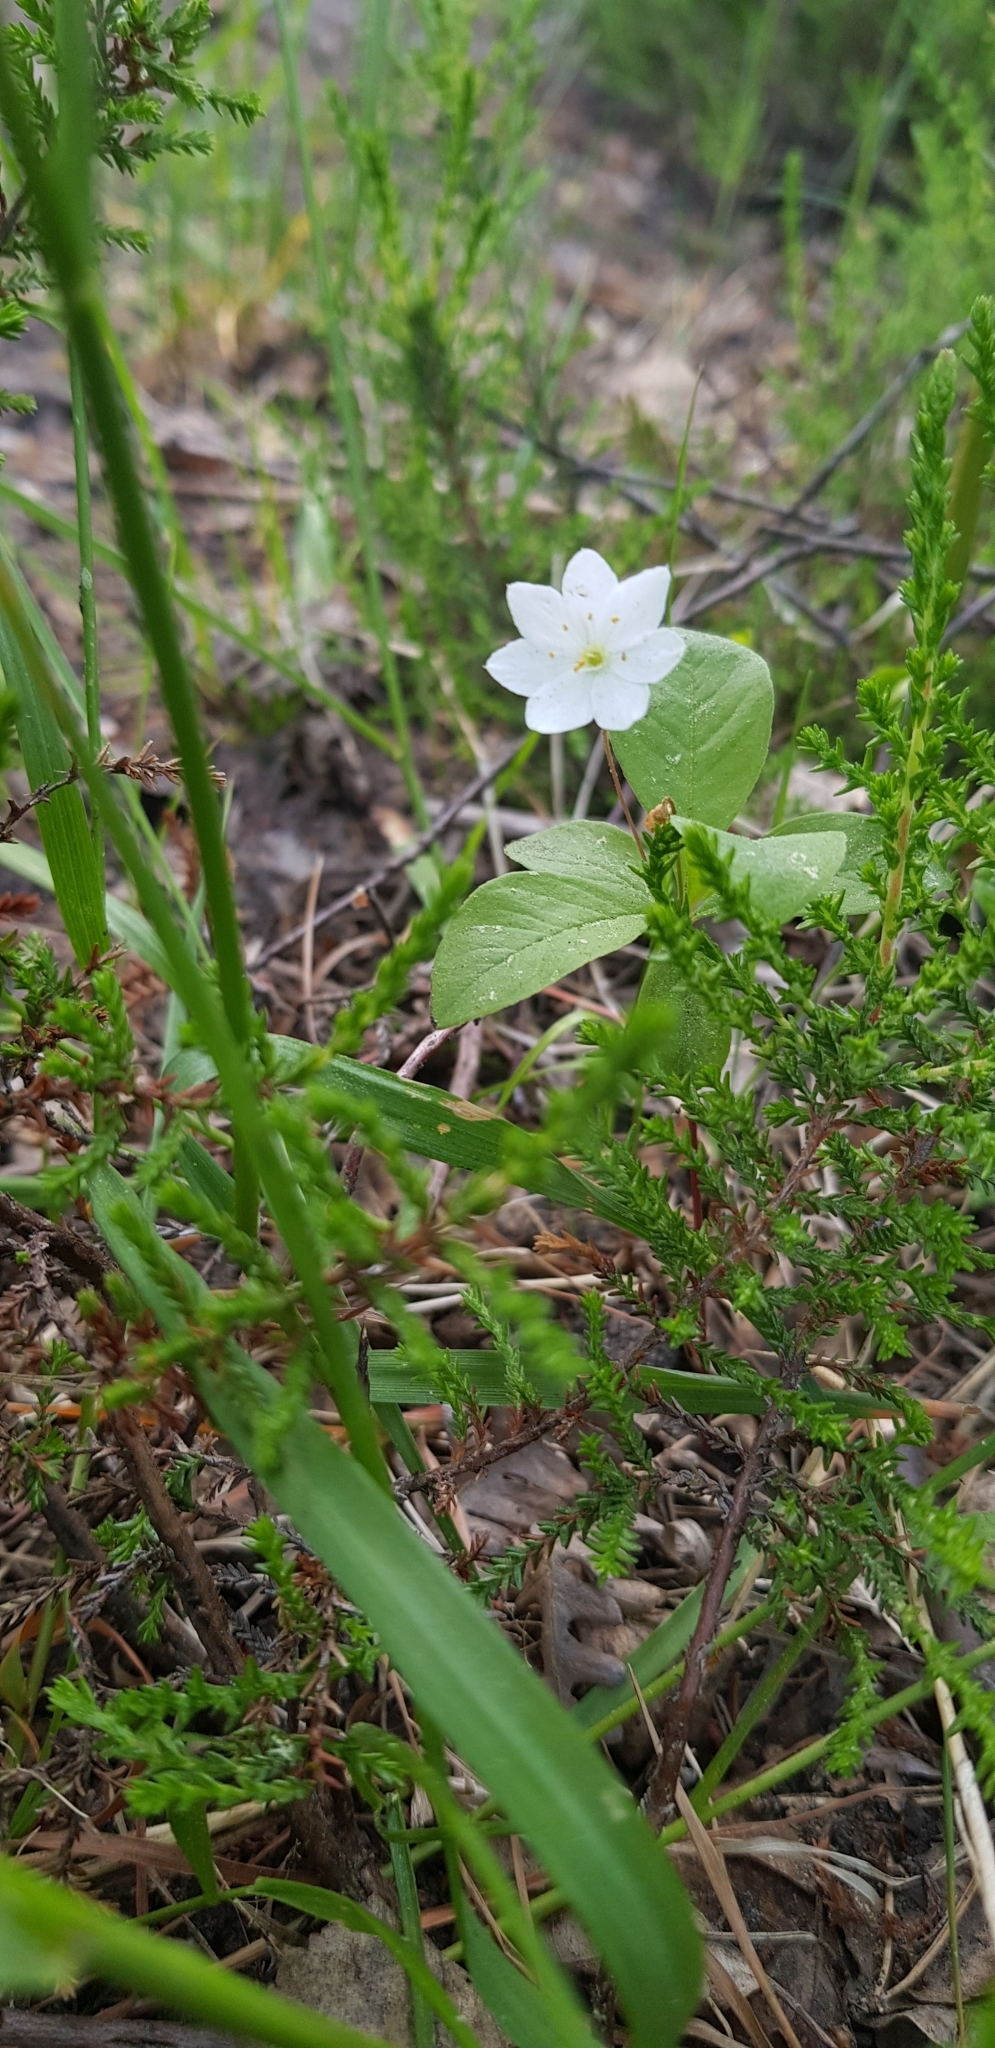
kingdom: Plantae
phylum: Tracheophyta
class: Magnoliopsida
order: Ericales
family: Primulaceae
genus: Lysimachia
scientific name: Lysimachia europaea
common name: Arctic starflower
